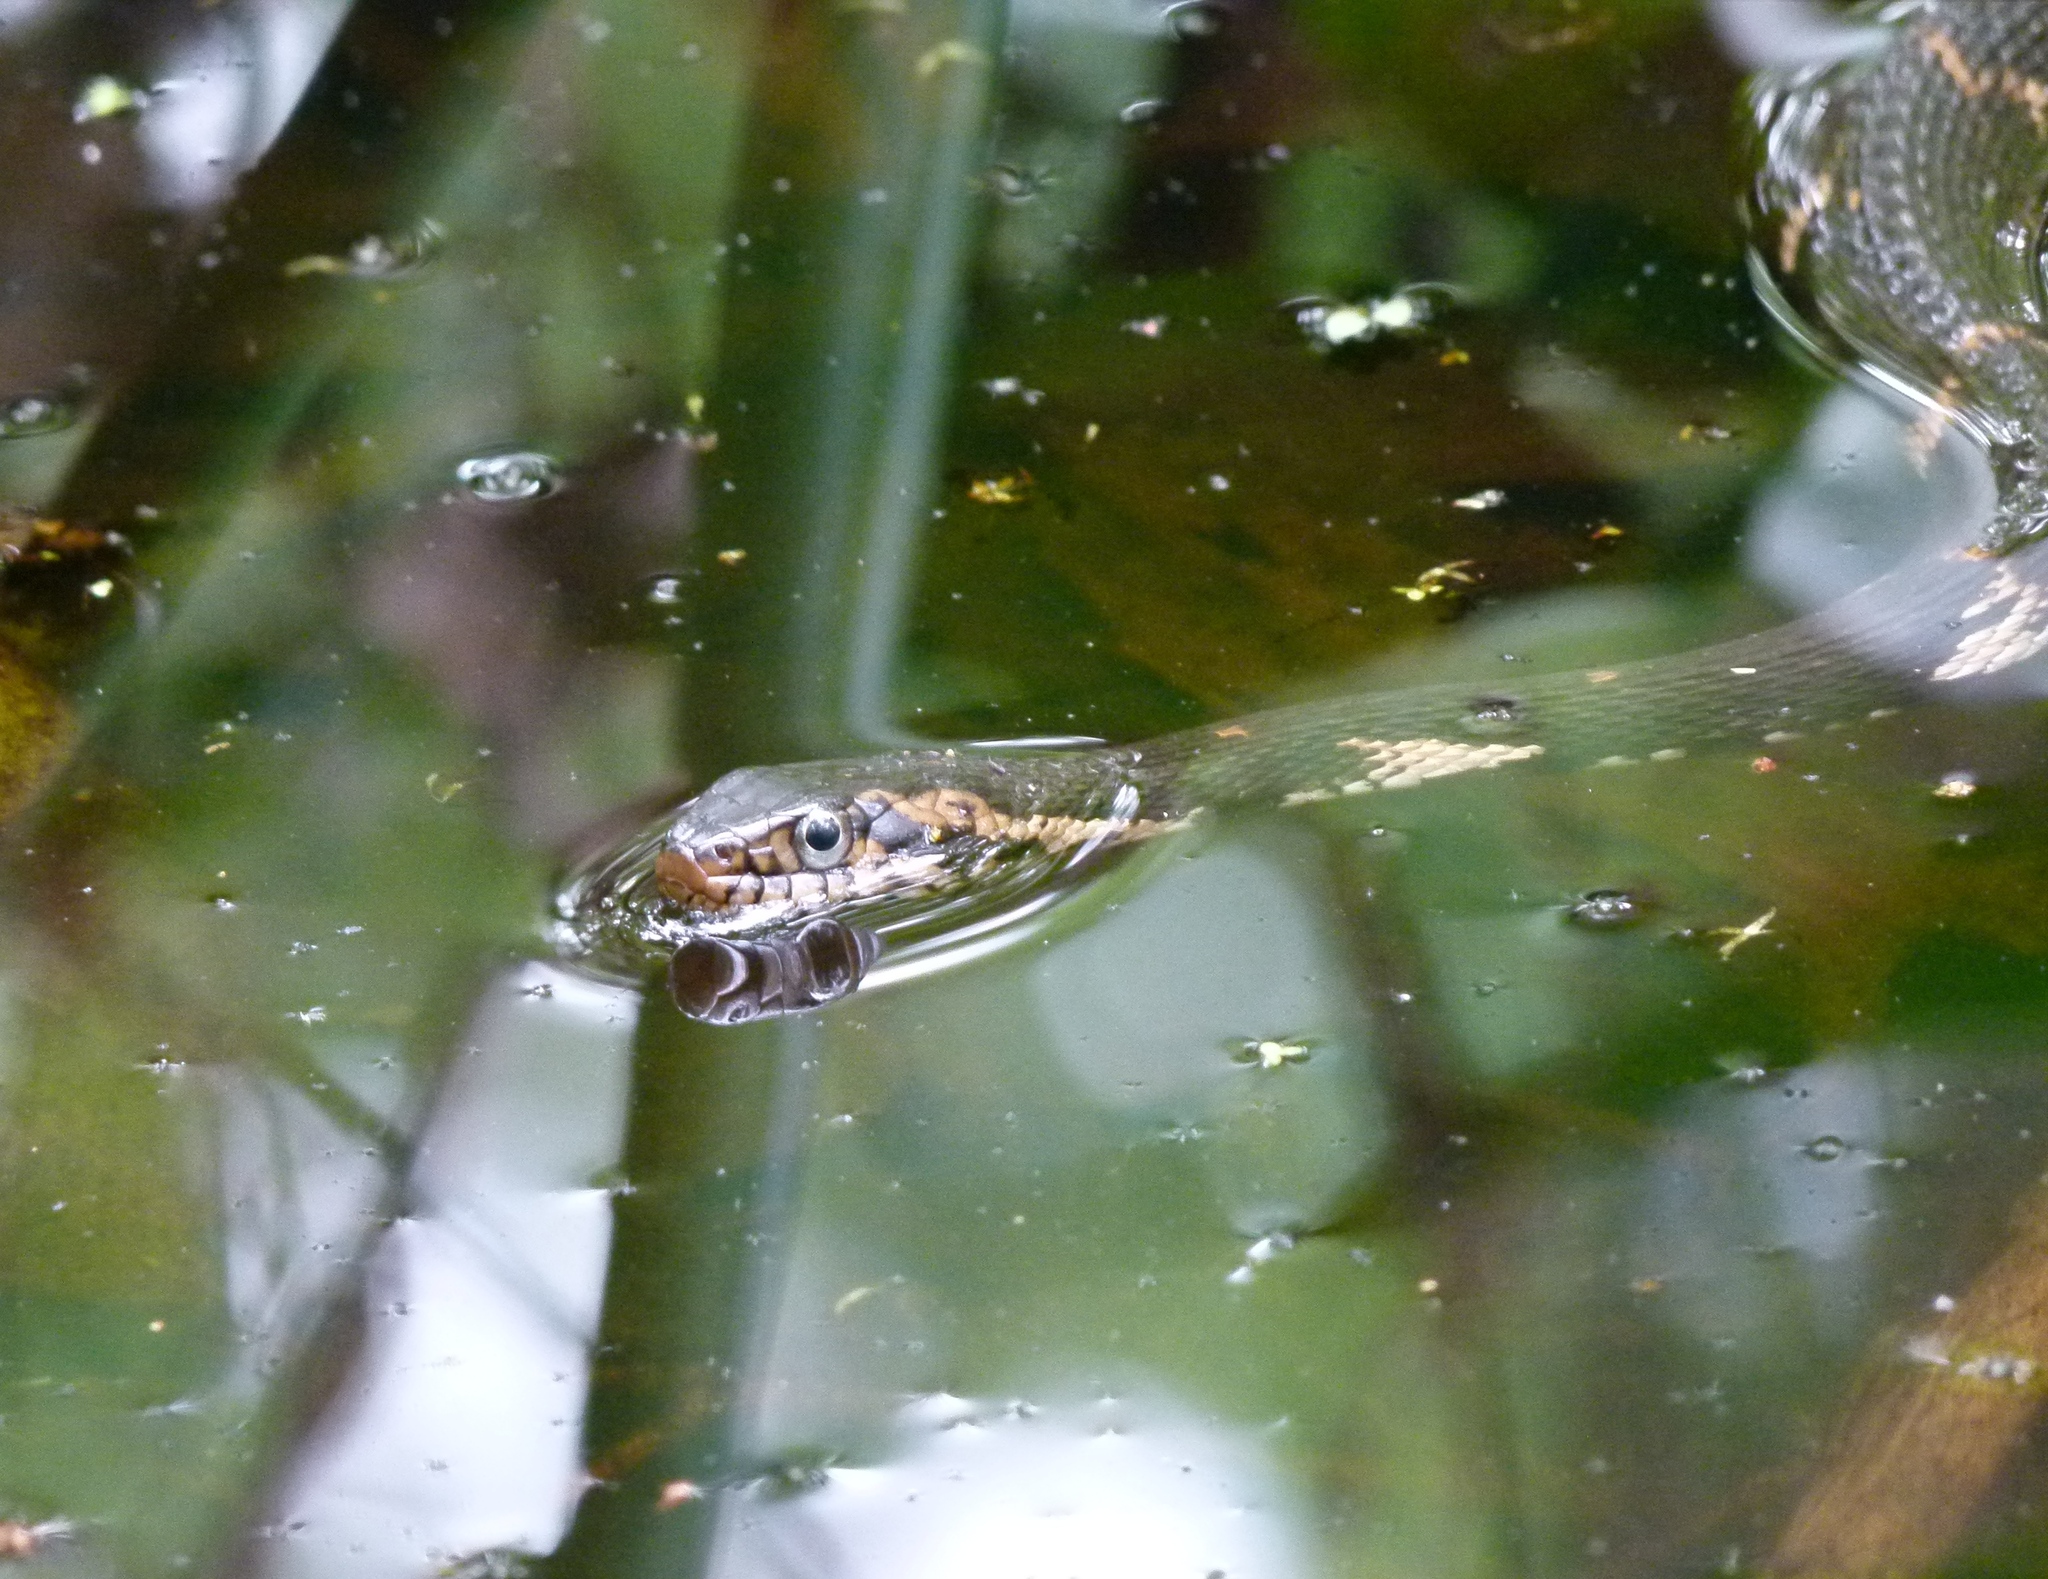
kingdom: Animalia
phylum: Chordata
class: Squamata
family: Colubridae
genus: Nerodia
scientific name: Nerodia fasciata
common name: Southern water snake
